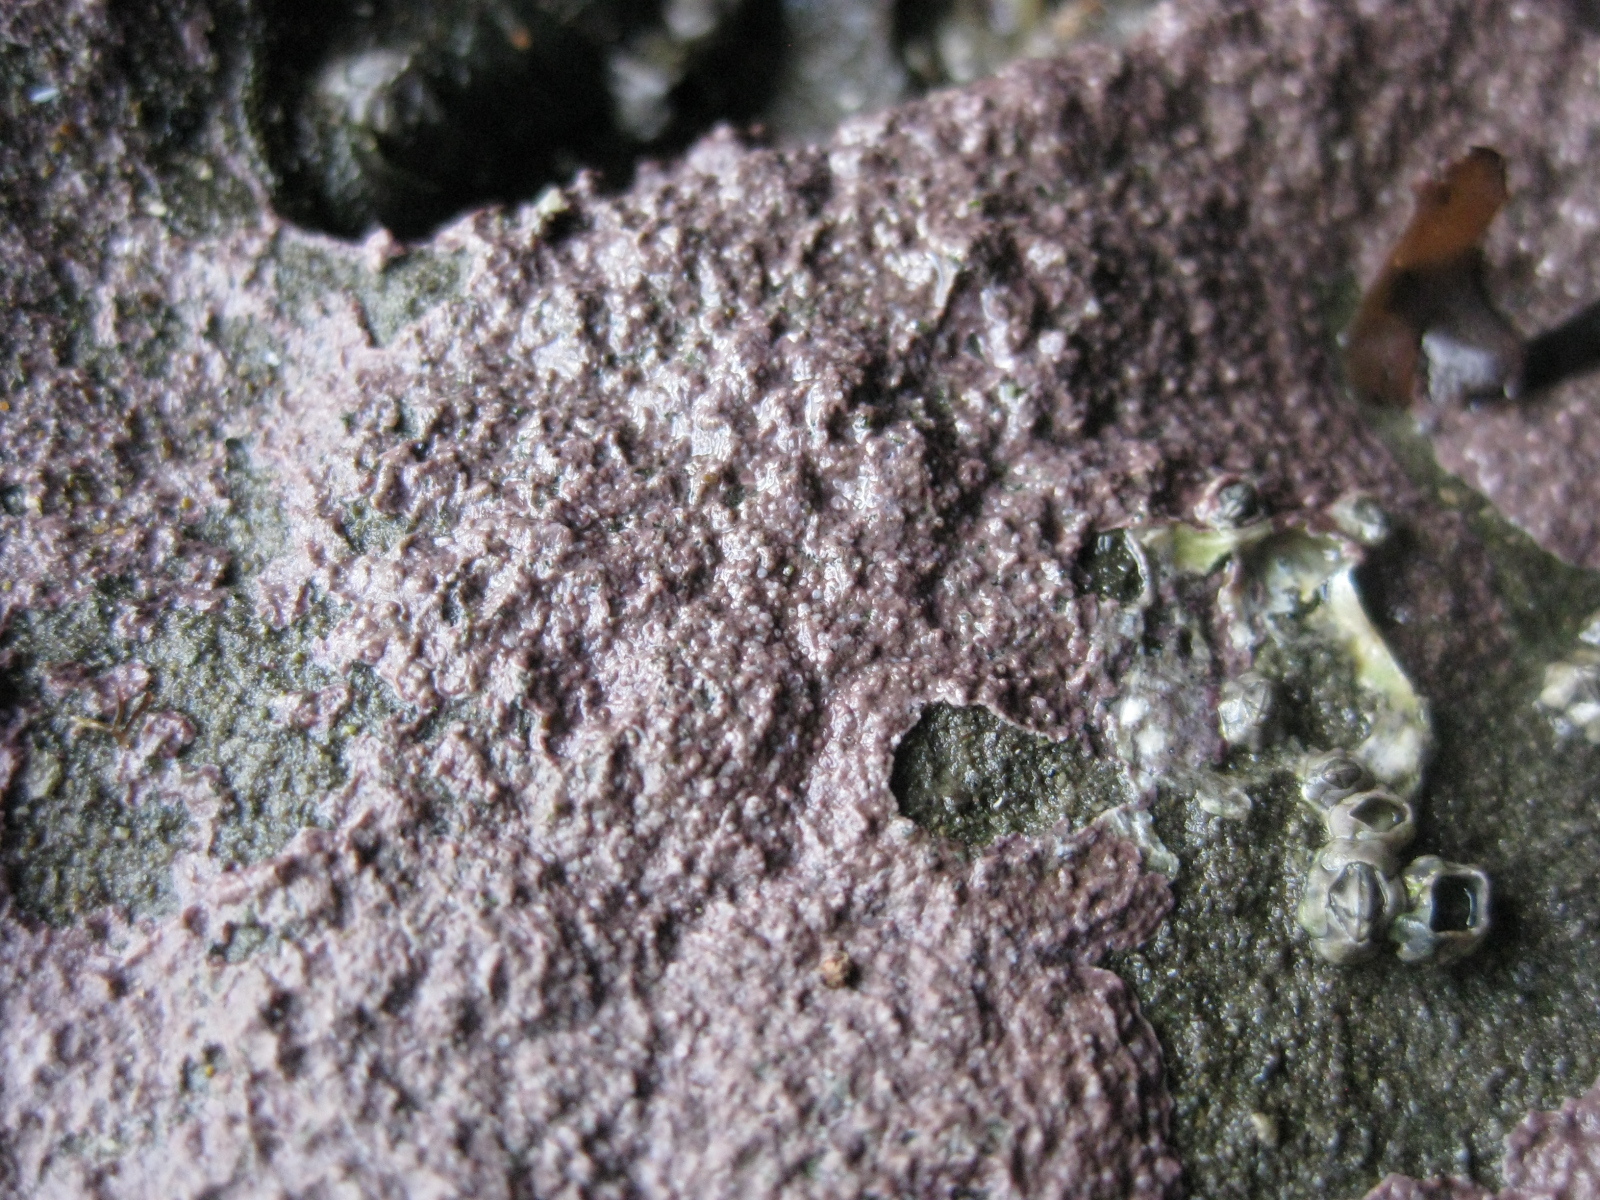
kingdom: Plantae
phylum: Rhodophyta
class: Florideophyceae
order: Corallinales
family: Spongitaceae
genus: Spongites
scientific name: Spongites yendoi
